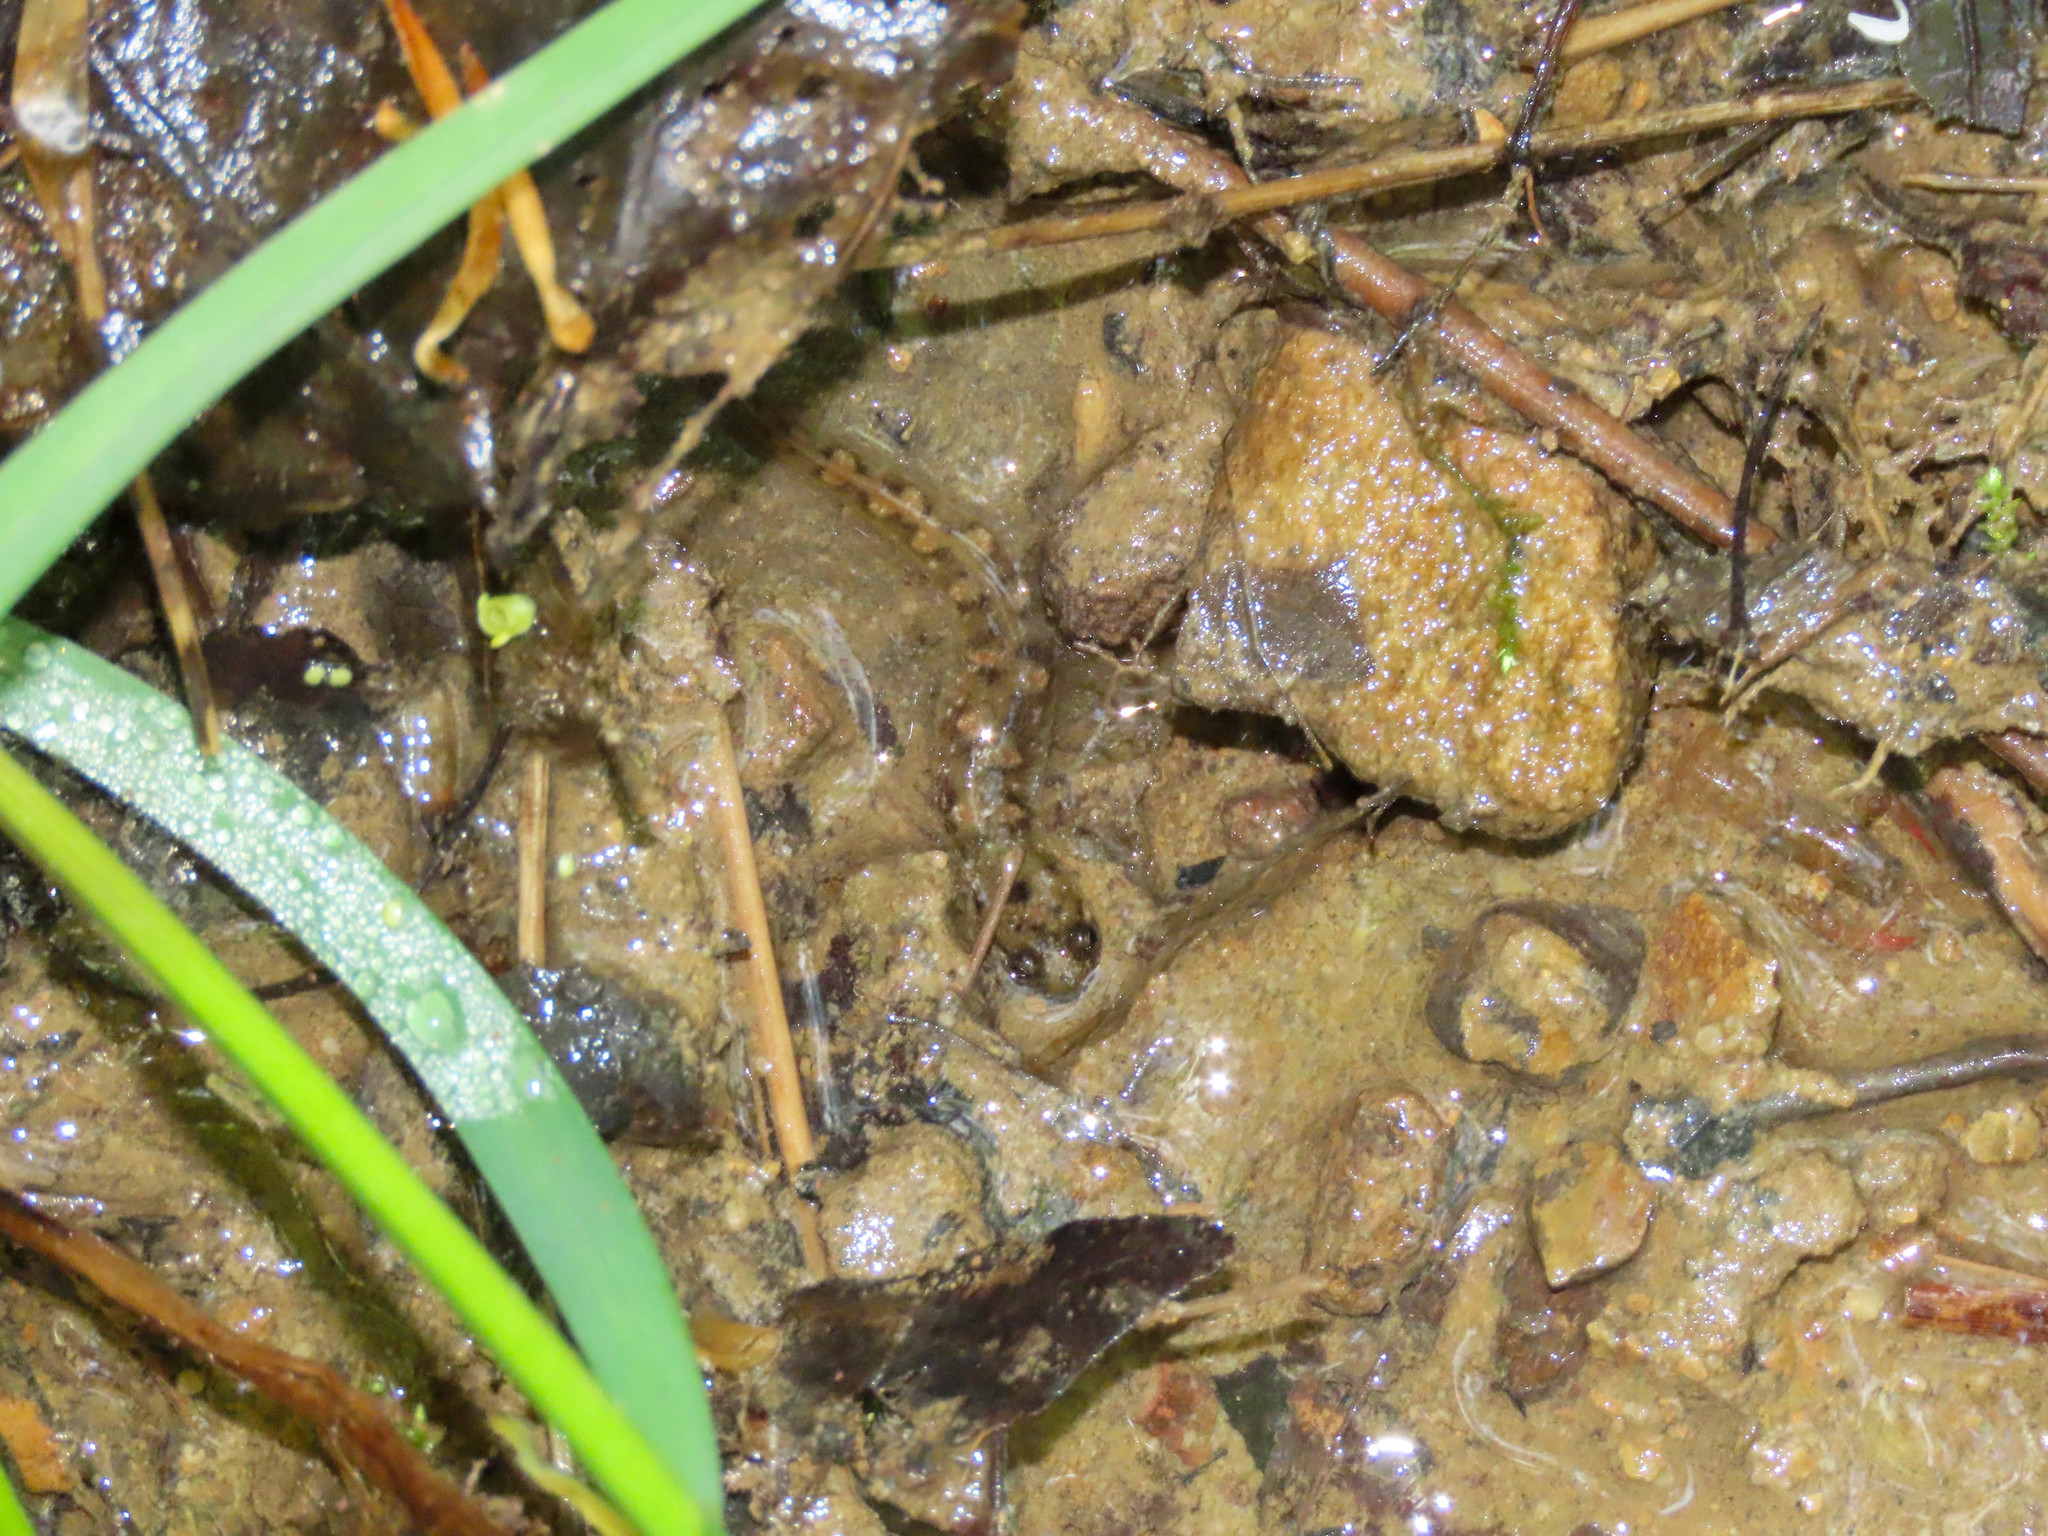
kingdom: Animalia
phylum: Chordata
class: Amphibia
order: Caudata
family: Plethodontidae
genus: Desmognathus
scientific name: Desmognathus monticola
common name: Seal salamander
